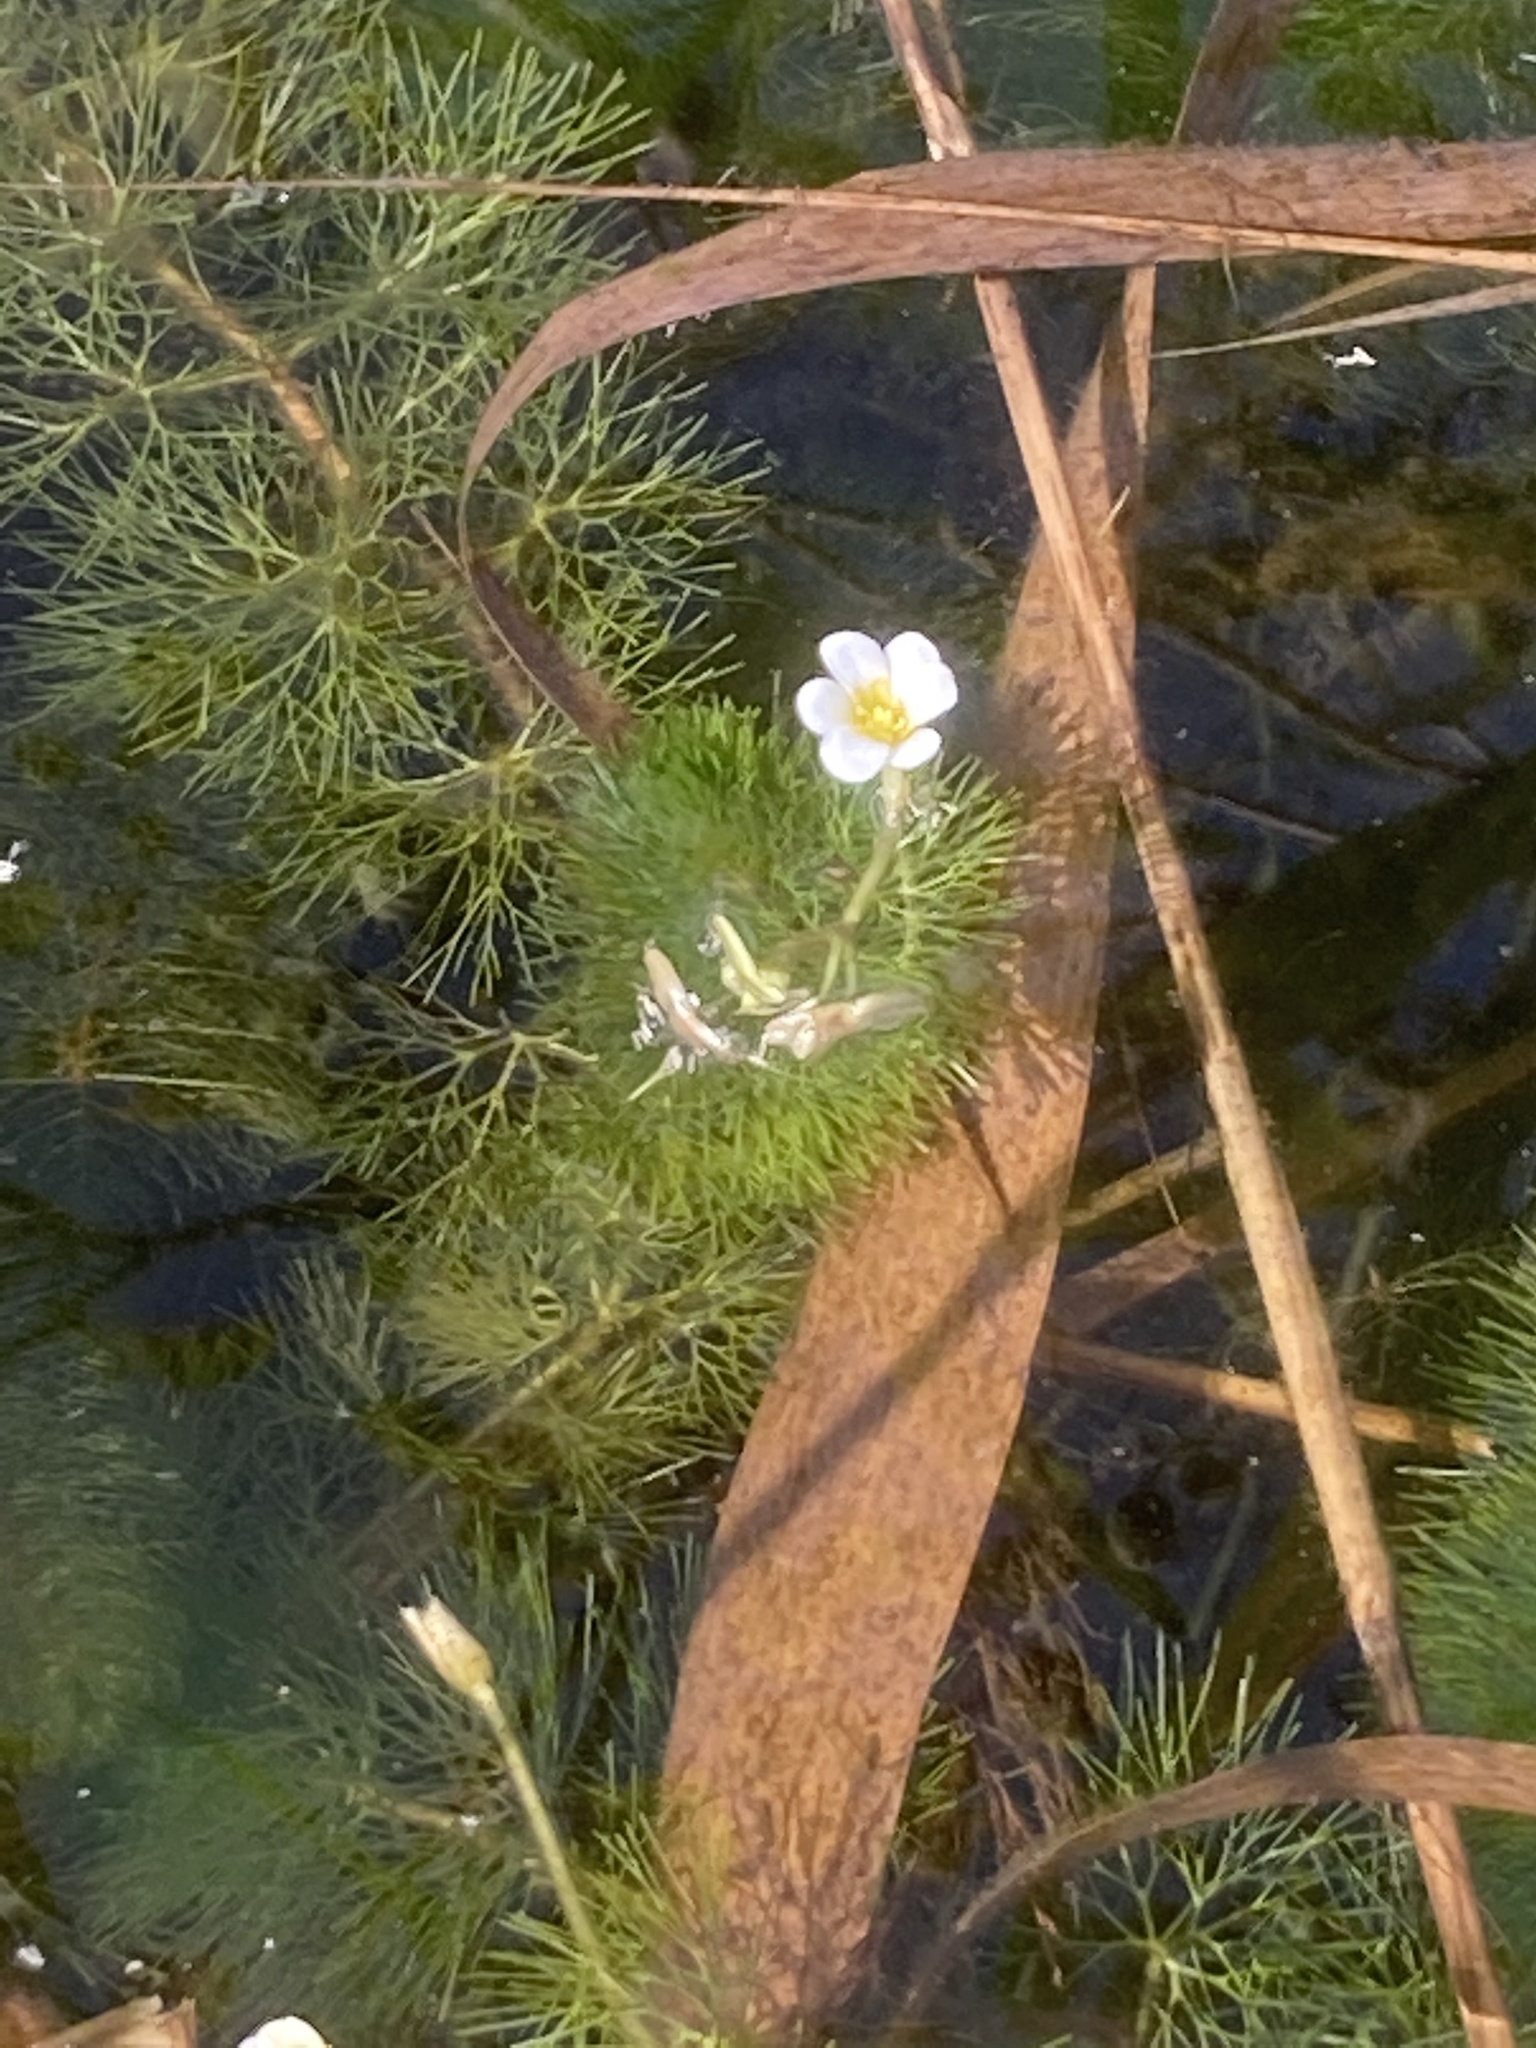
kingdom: Plantae
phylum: Tracheophyta
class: Magnoliopsida
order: Nymphaeales
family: Cabombaceae
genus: Cabomba
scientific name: Cabomba caroliniana
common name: Fanwort
